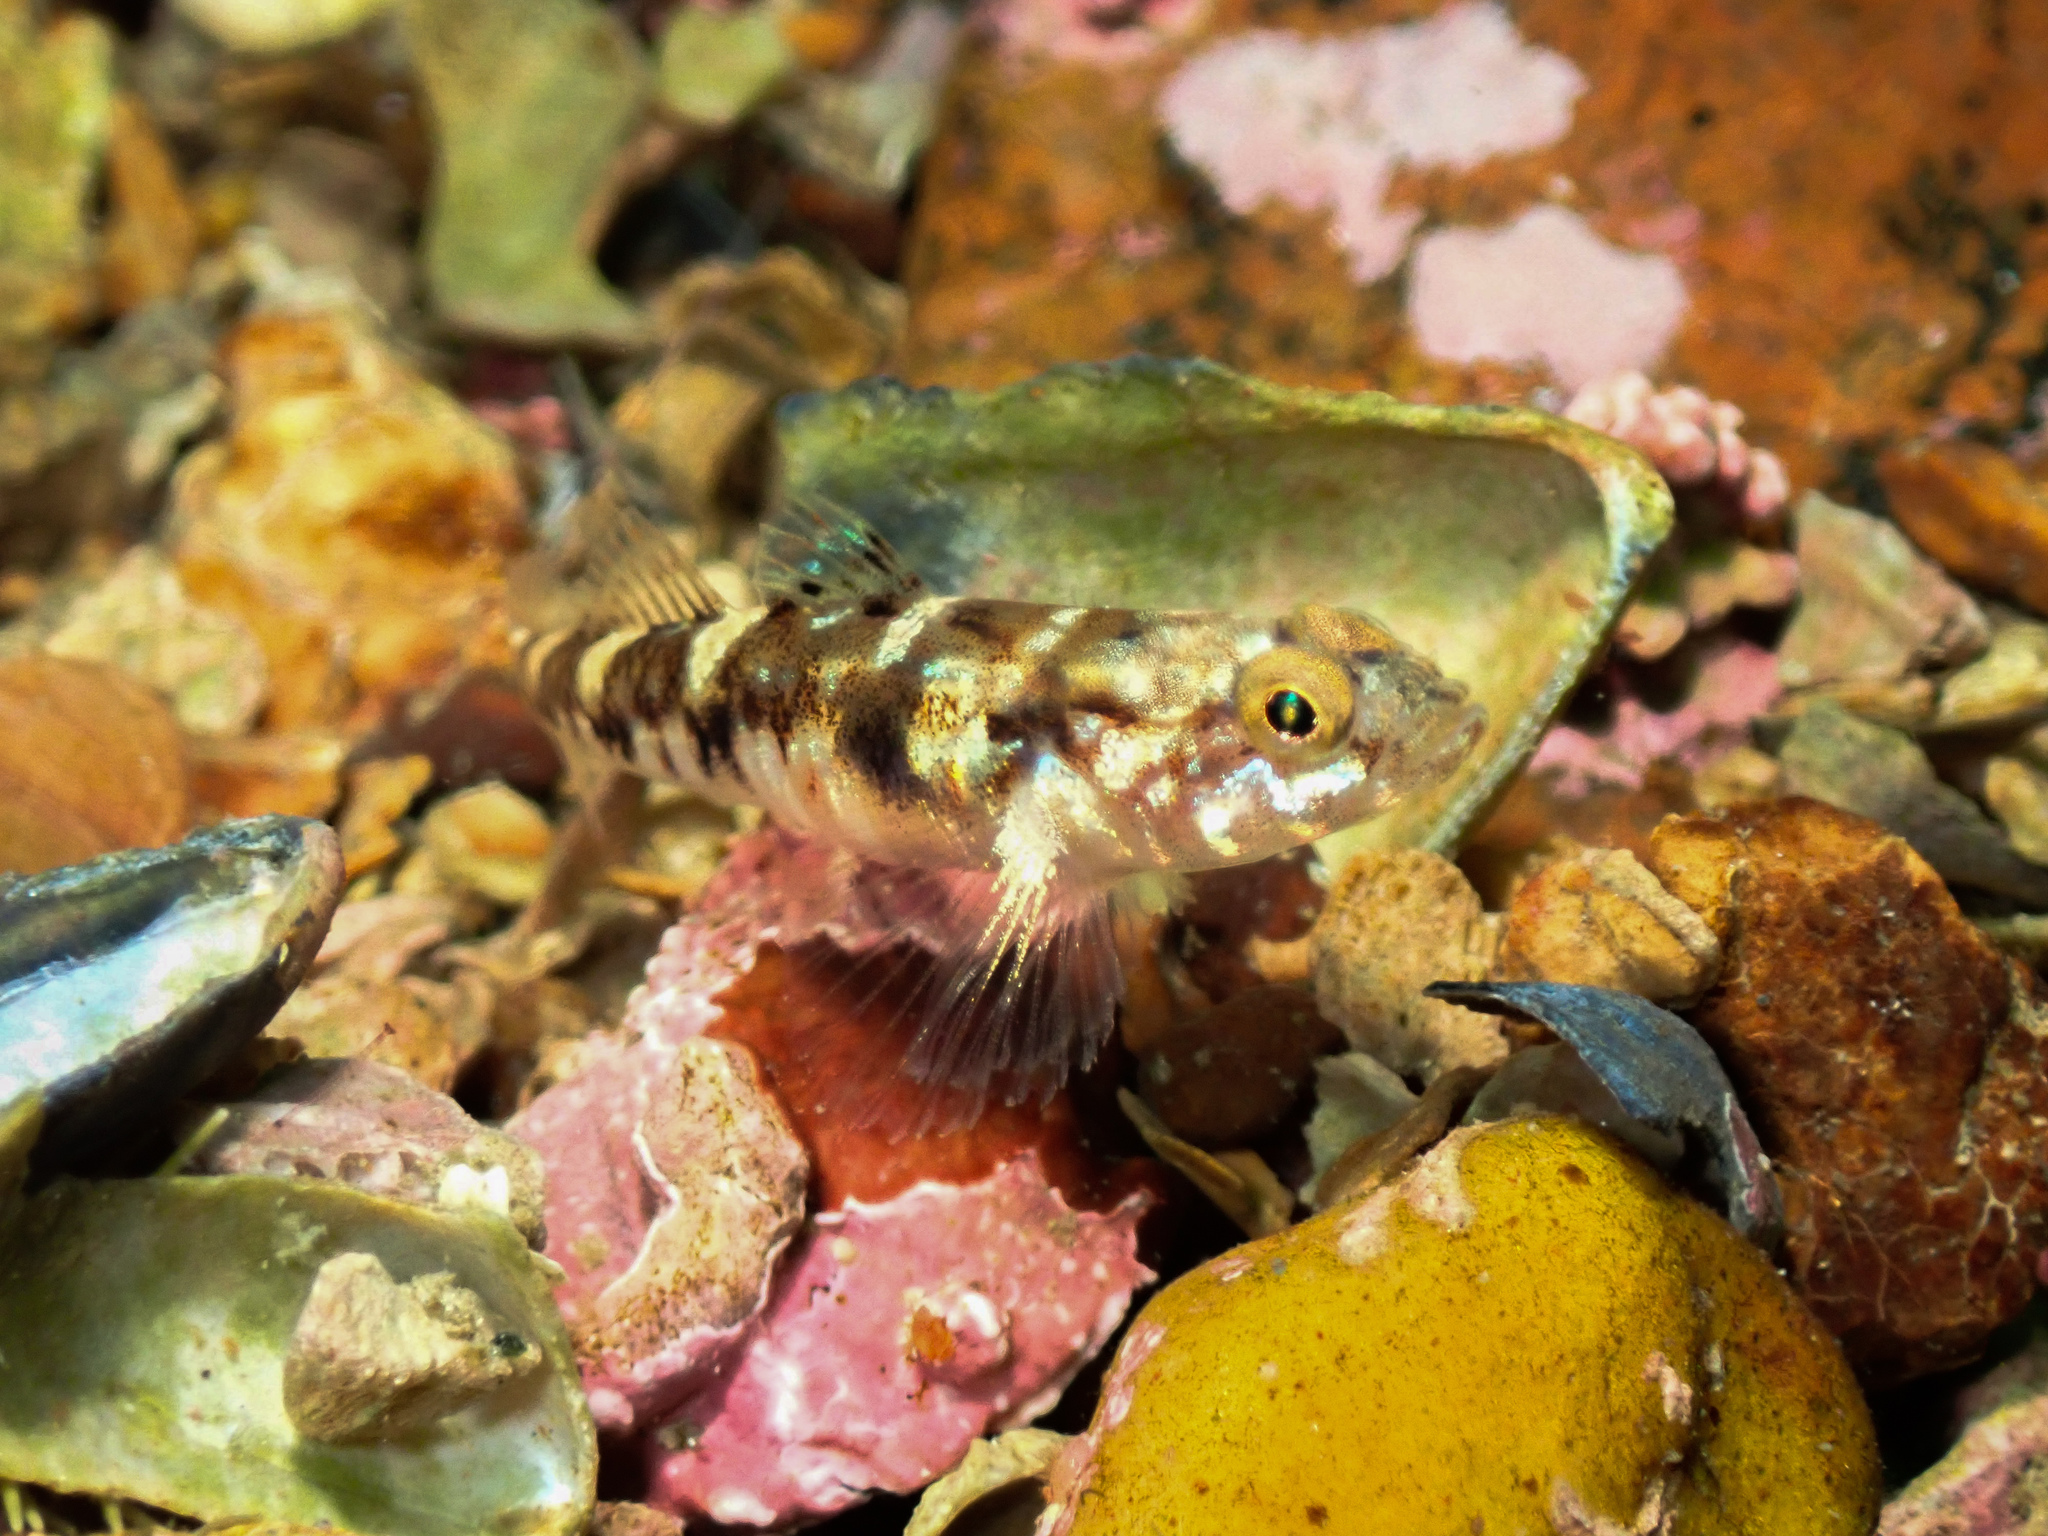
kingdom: Animalia
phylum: Chordata
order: Perciformes
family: Gobiidae
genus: Pomatoschistus
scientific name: Pomatoschistus pictus
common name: Painted goby
